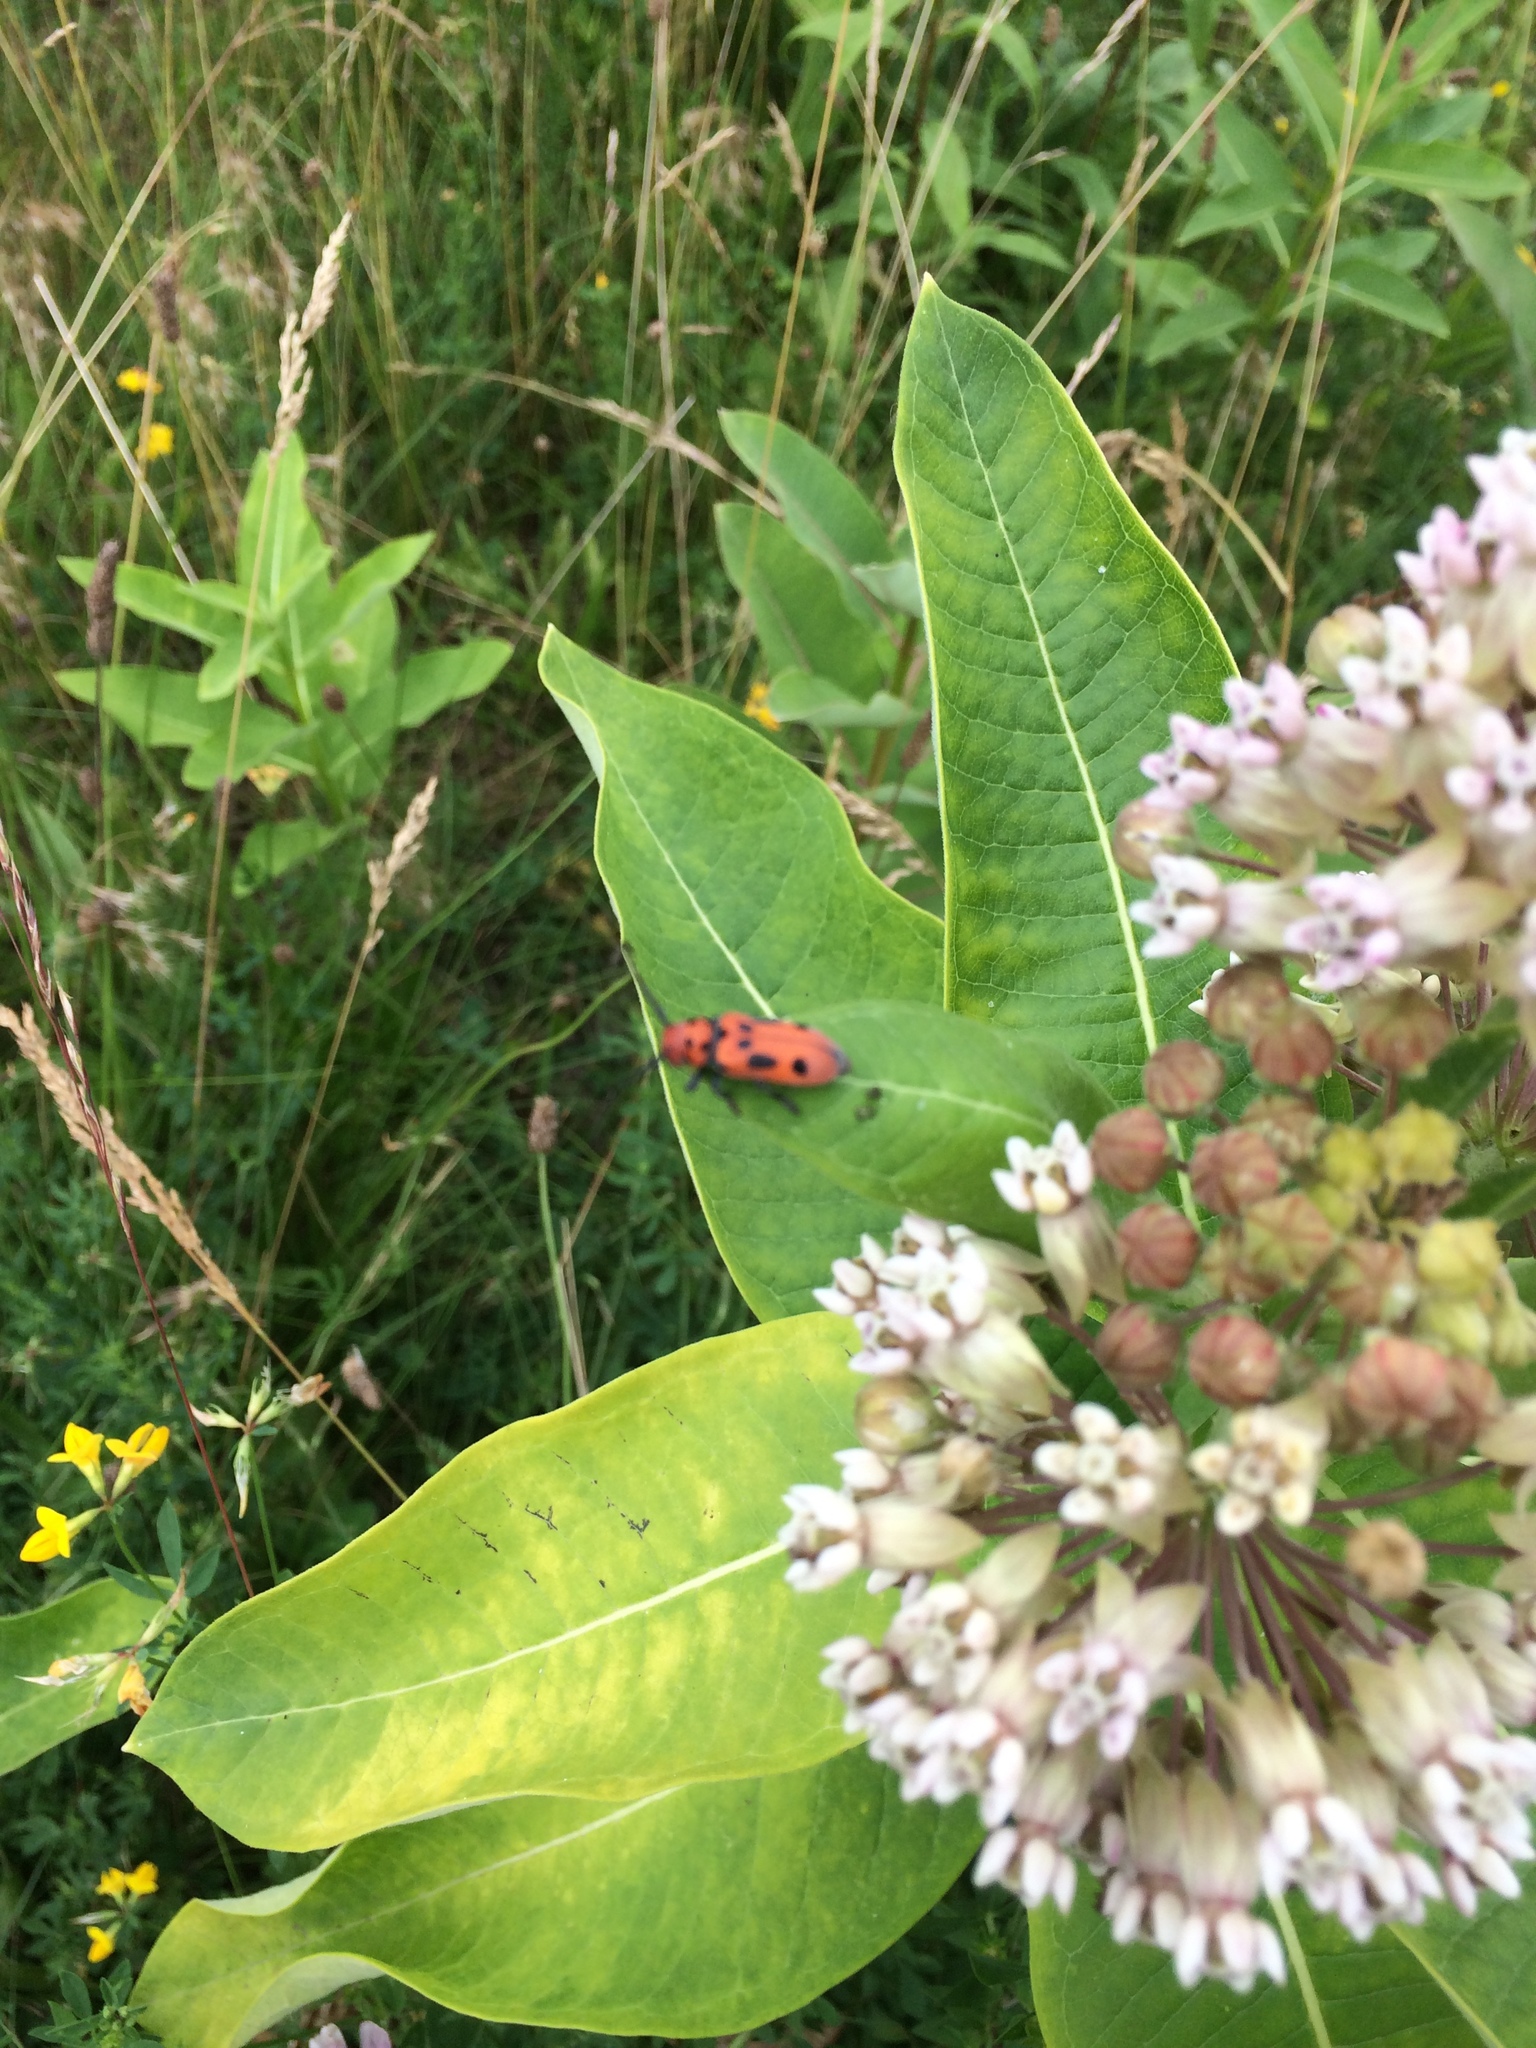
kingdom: Animalia
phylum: Arthropoda
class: Insecta
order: Coleoptera
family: Cerambycidae
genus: Tetraopes
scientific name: Tetraopes tetrophthalmus
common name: Red milkweed beetle
